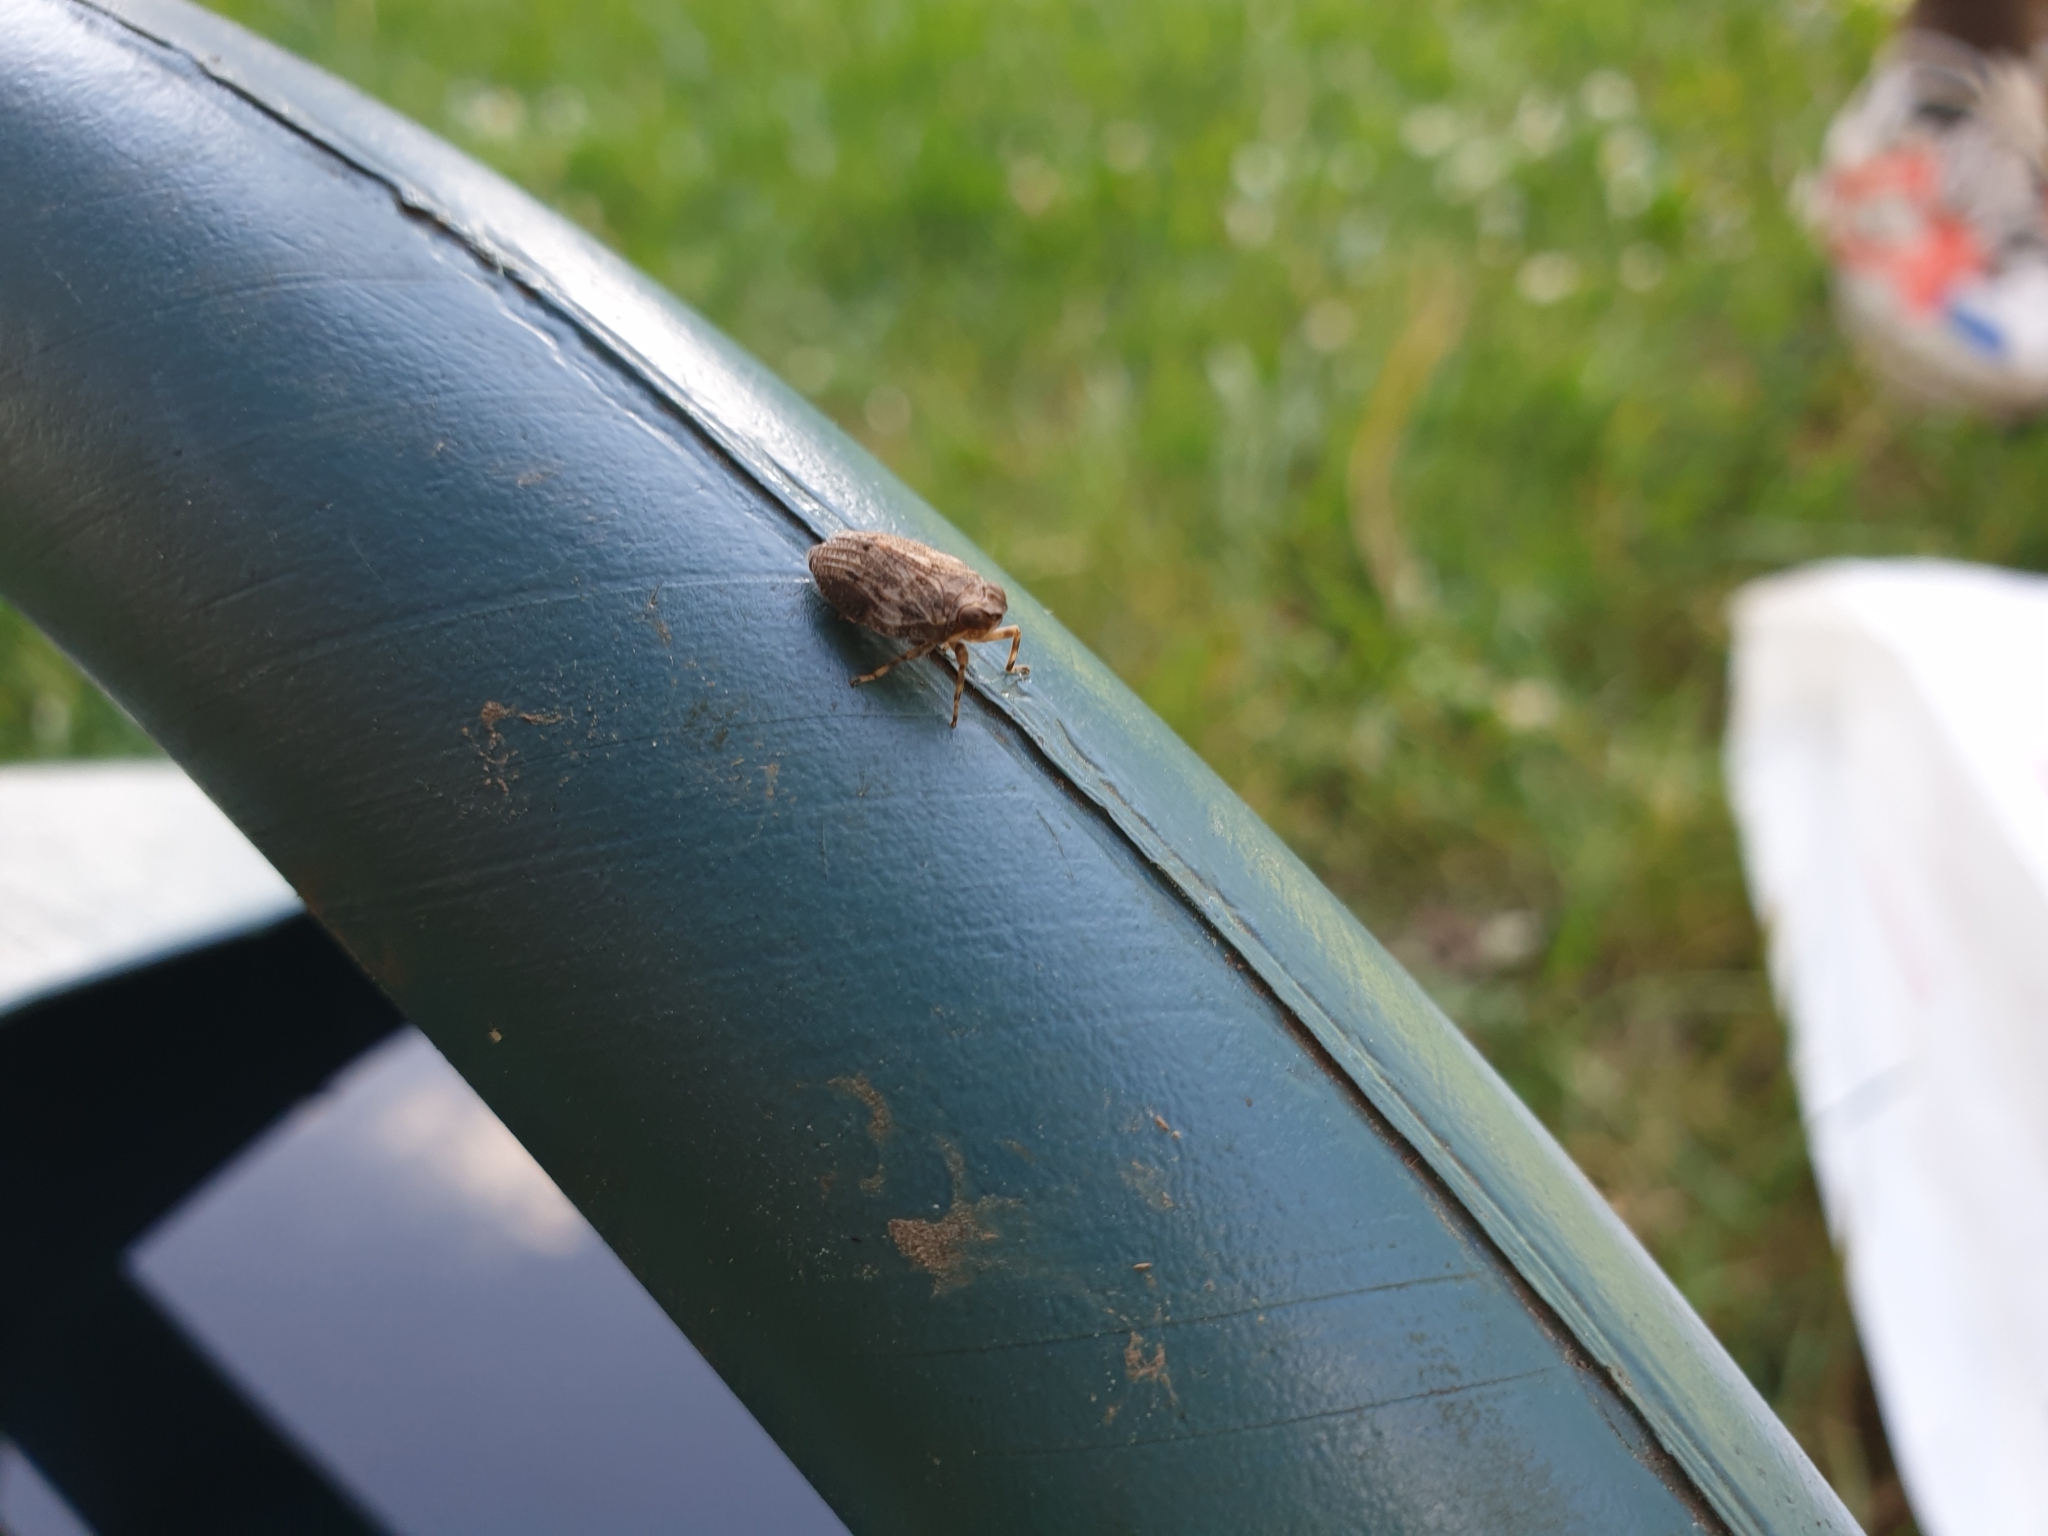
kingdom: Animalia
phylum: Arthropoda
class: Insecta
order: Hemiptera
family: Issidae
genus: Issus
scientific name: Issus coleoptratus
